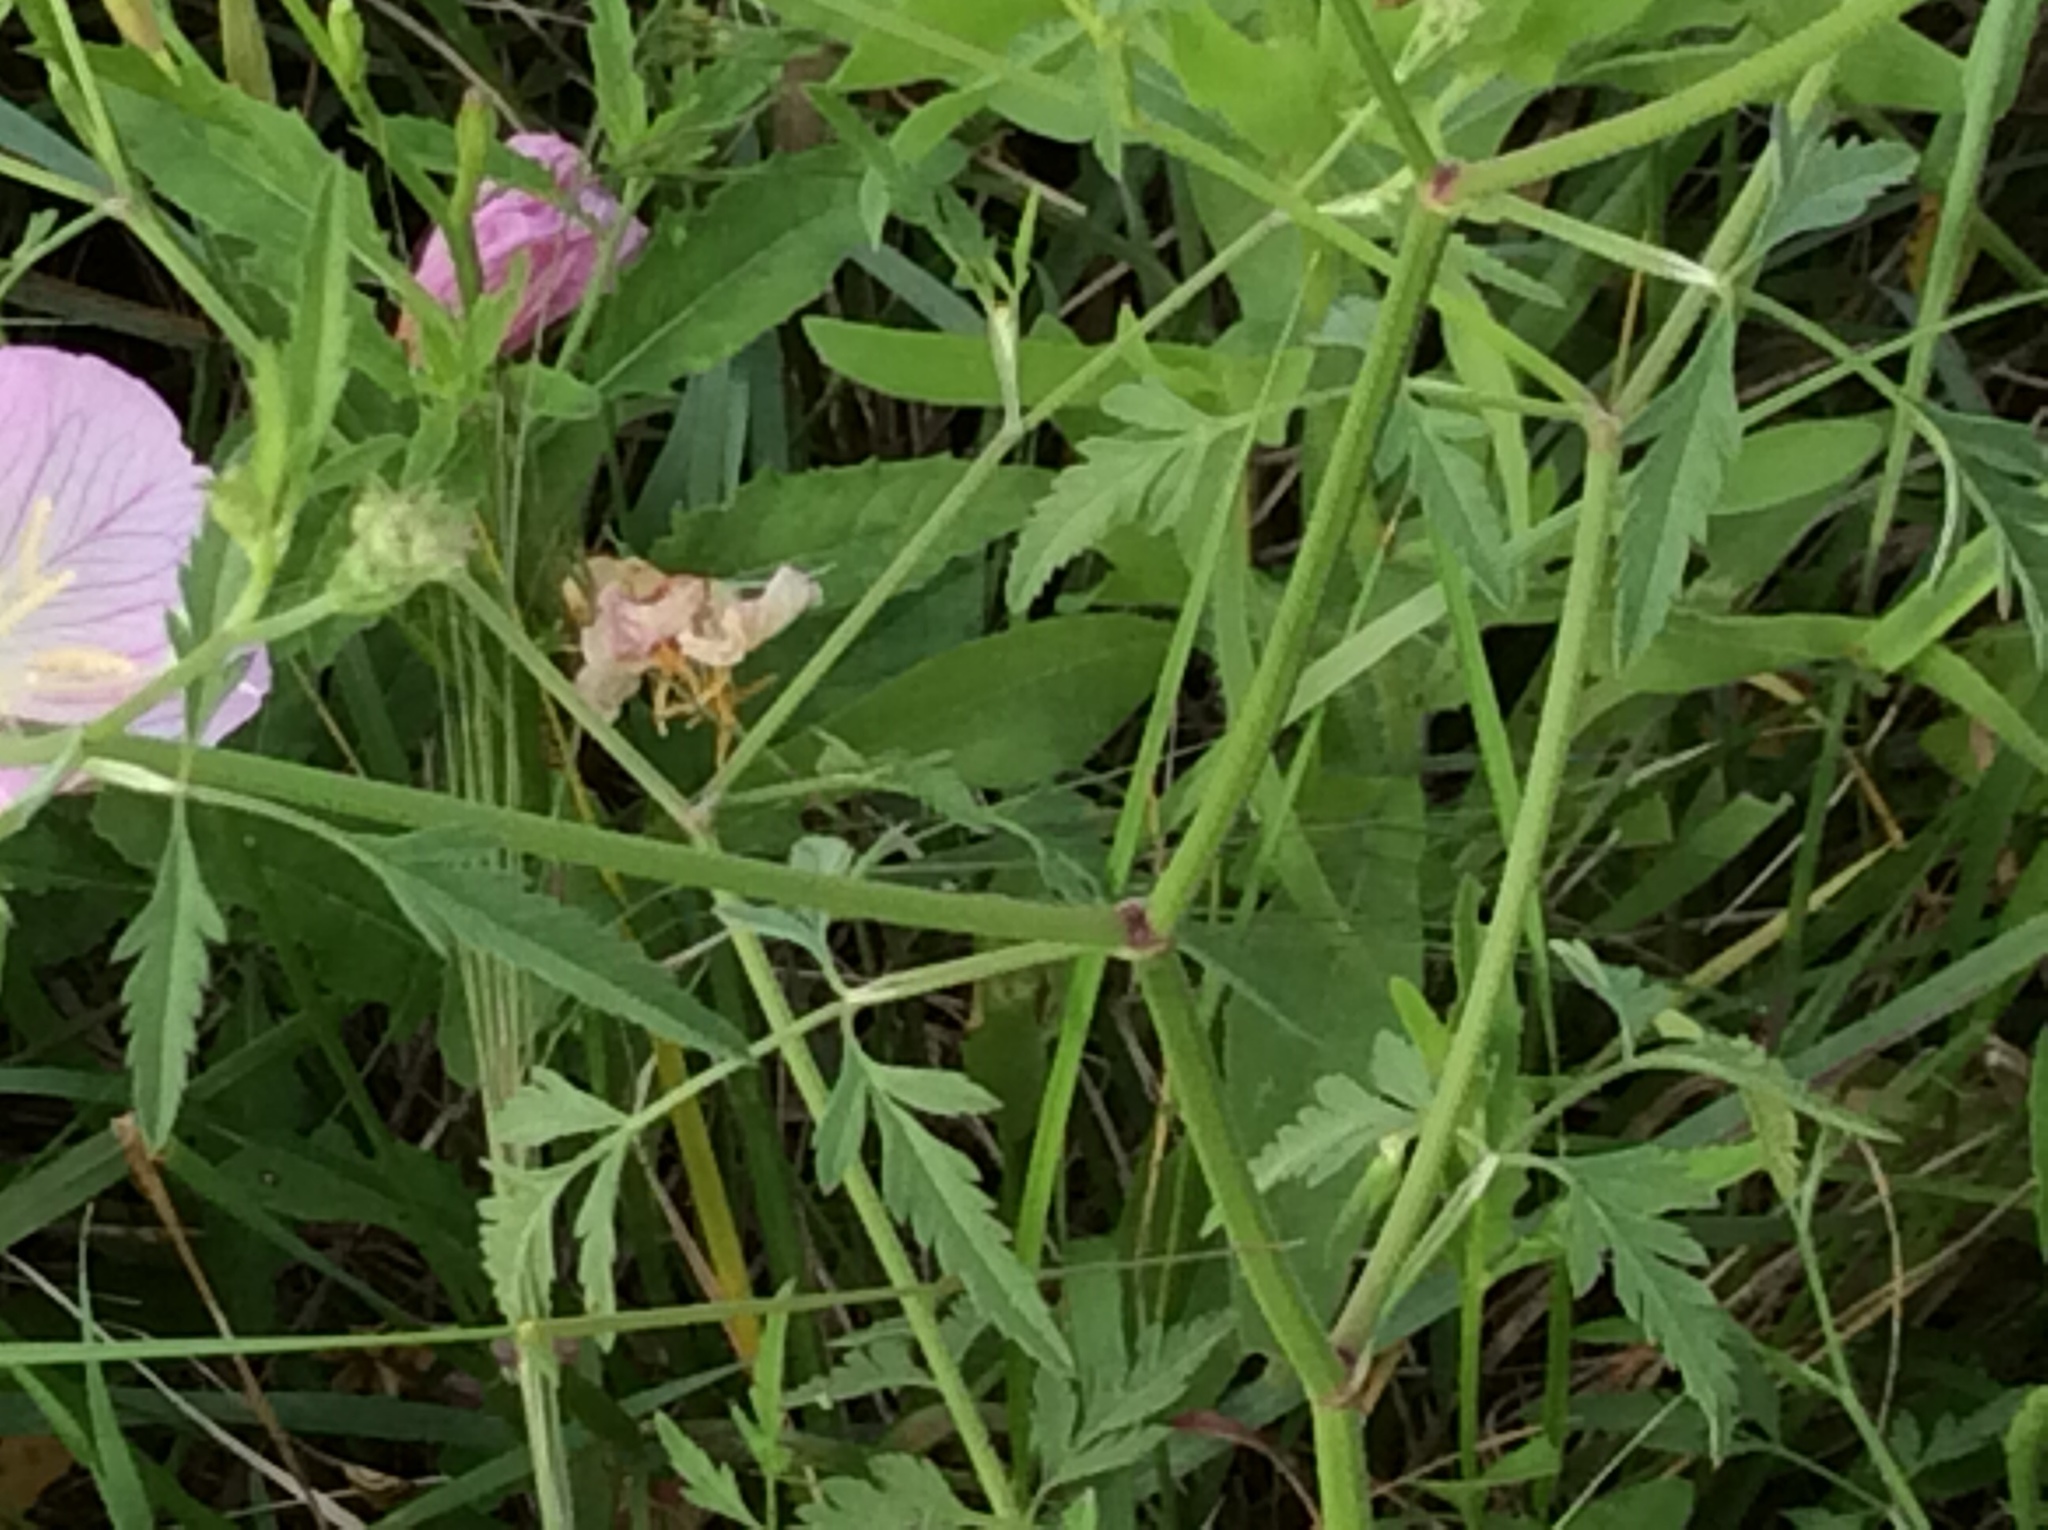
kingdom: Plantae
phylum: Tracheophyta
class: Magnoliopsida
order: Apiales
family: Apiaceae
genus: Torilis
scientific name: Torilis arvensis
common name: Spreading hedge-parsley
